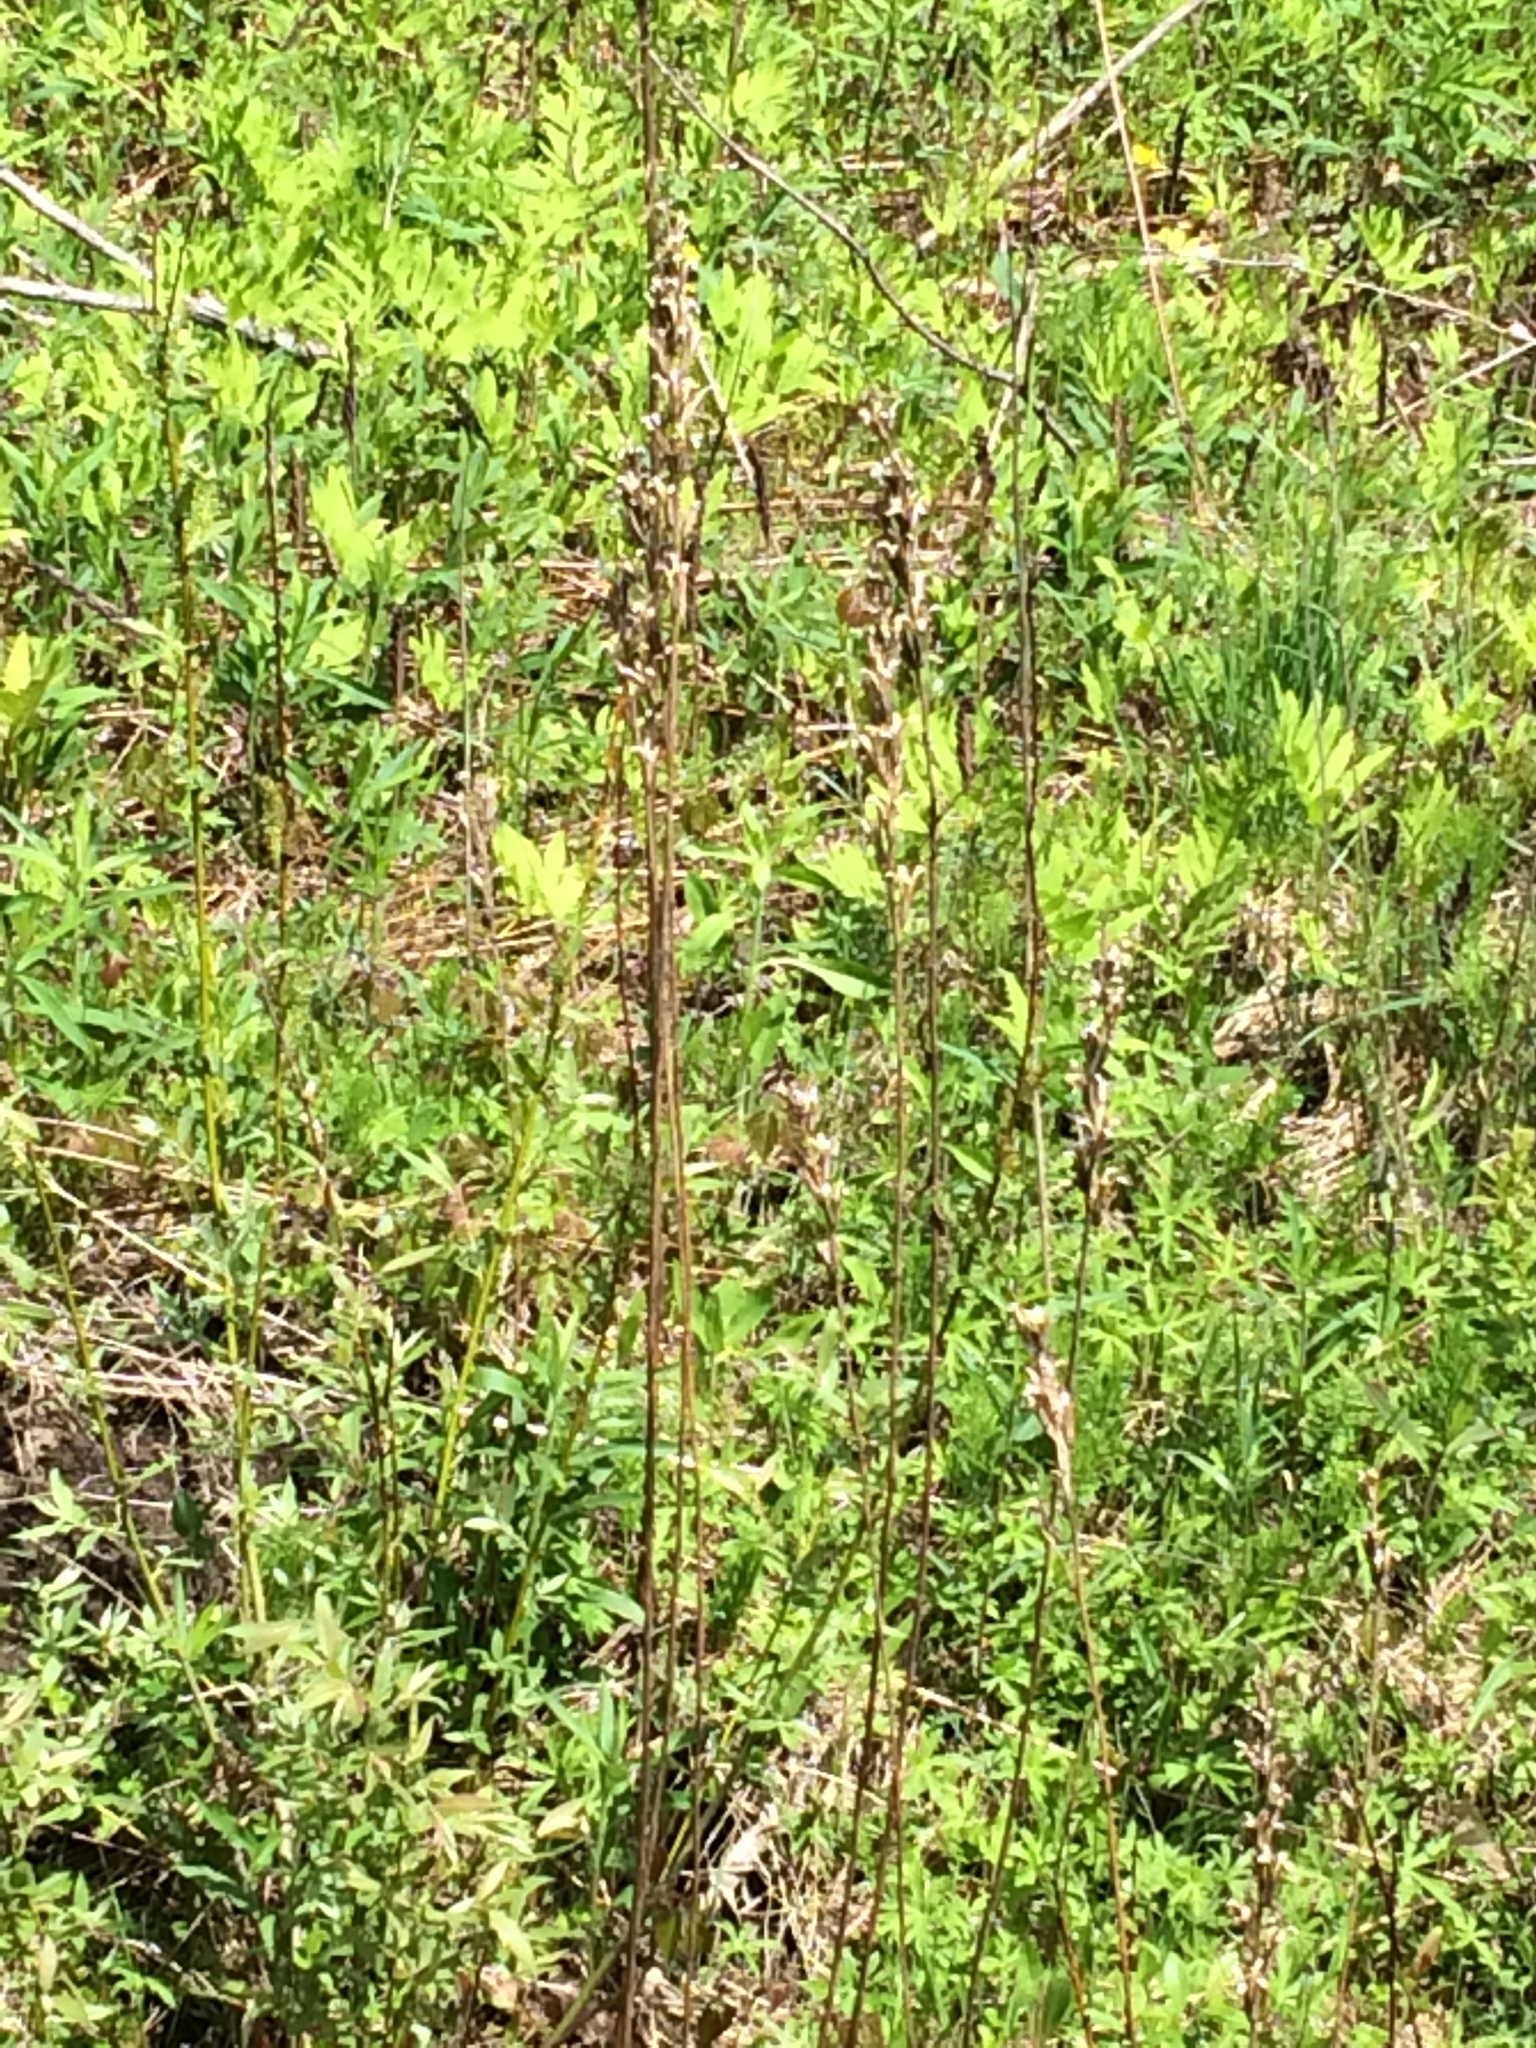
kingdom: Plantae
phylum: Tracheophyta
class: Magnoliopsida
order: Myrtales
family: Onagraceae
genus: Oenothera
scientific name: Oenothera biennis
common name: Common evening-primrose
